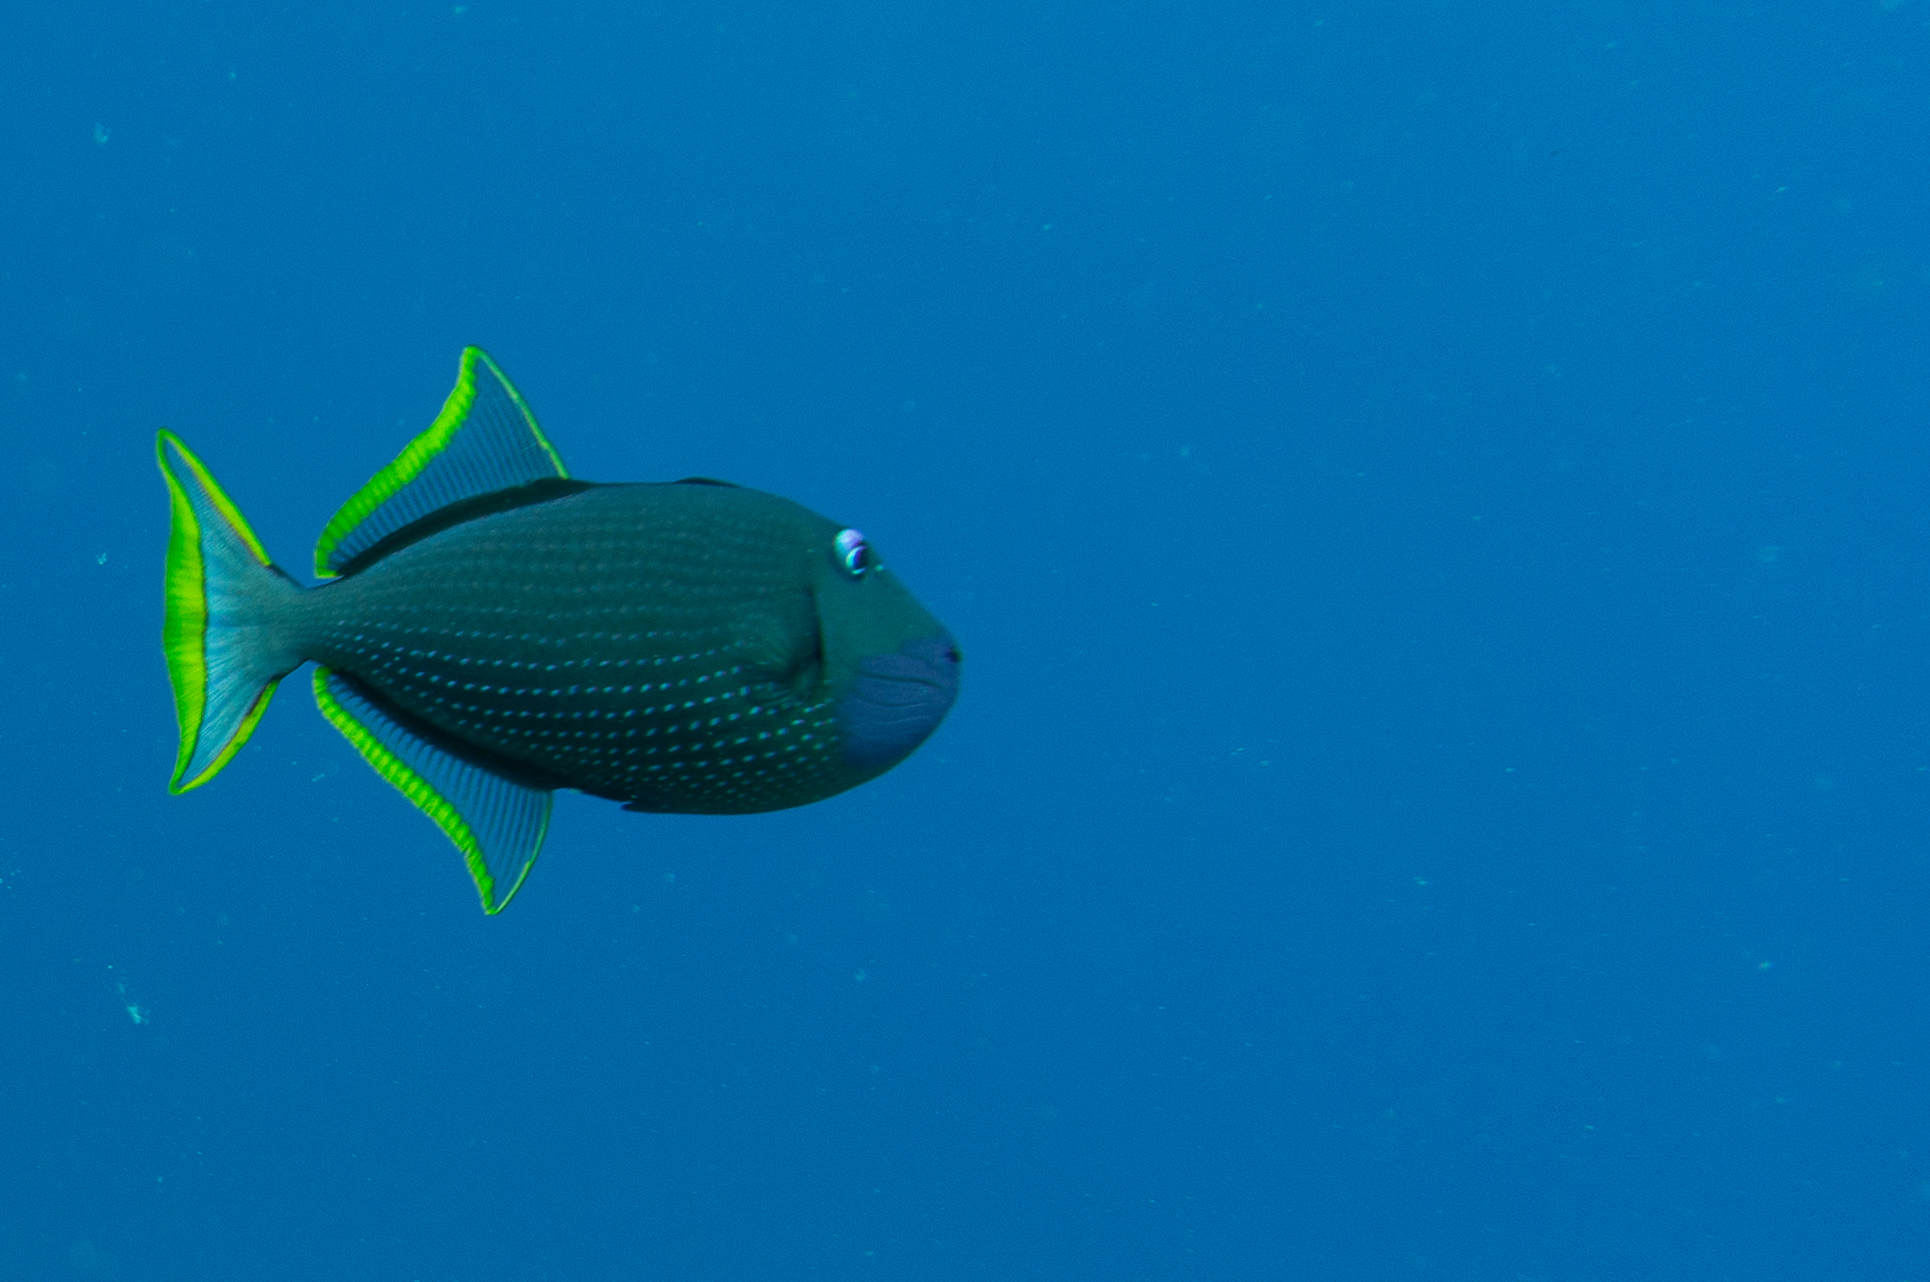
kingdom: Animalia
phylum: Chordata
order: Tetraodontiformes
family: Balistidae
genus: Xanthichthys
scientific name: Xanthichthys auromarginatus
